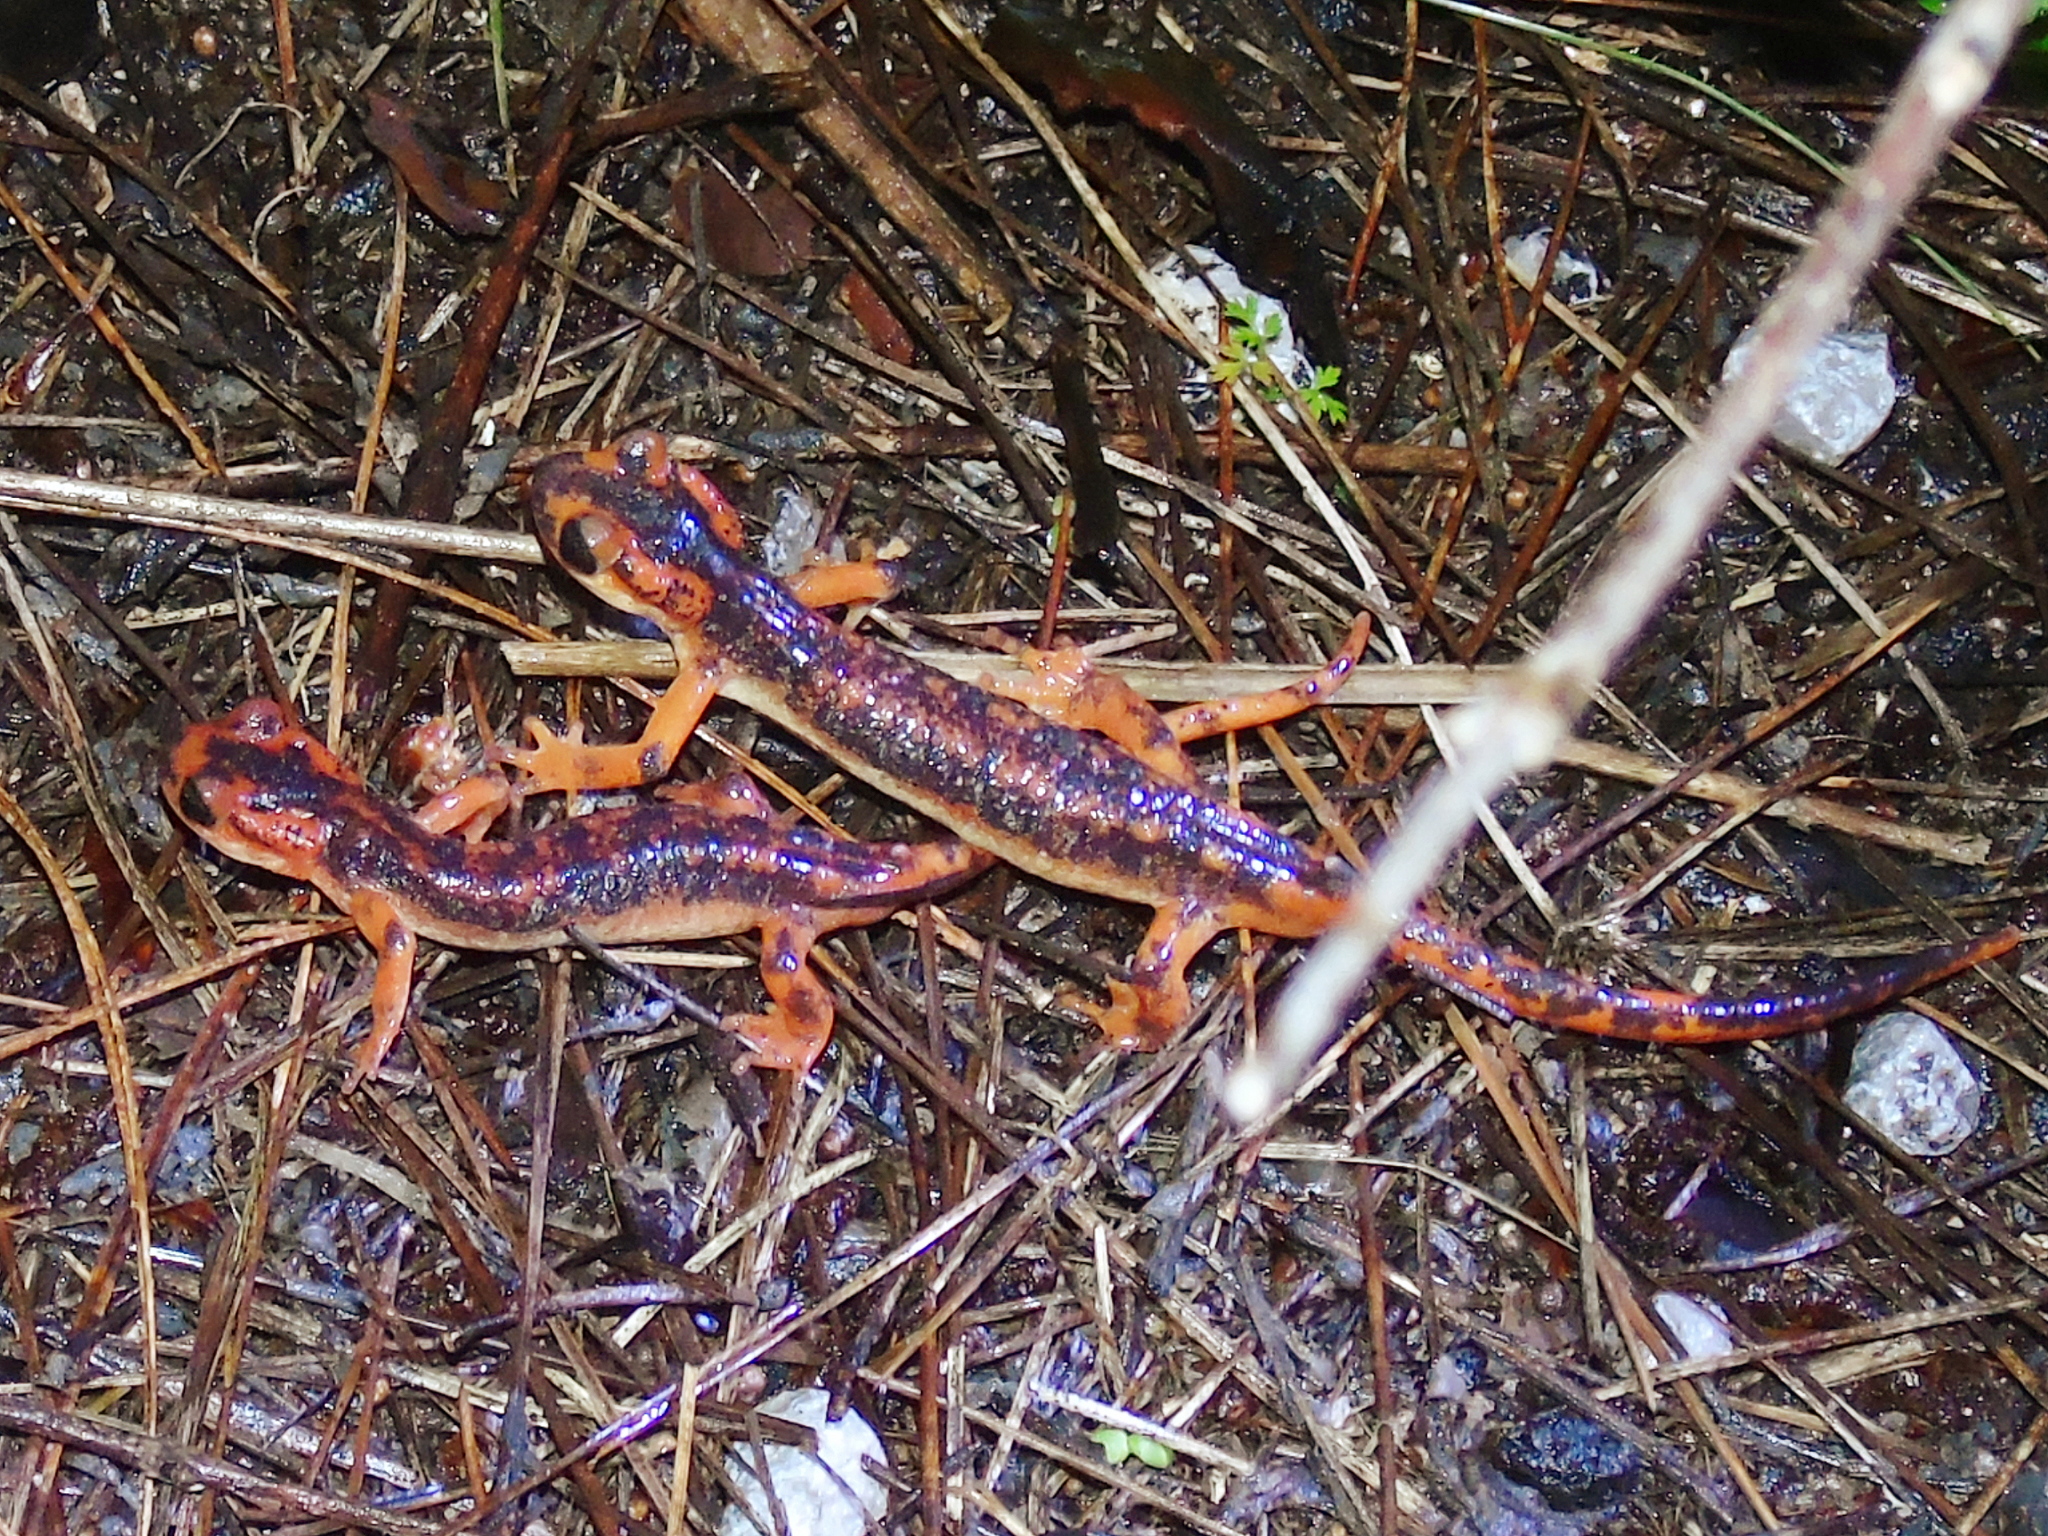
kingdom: Animalia
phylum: Chordata
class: Amphibia
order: Caudata
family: Salamandridae
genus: Lyciasalamandra
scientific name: Lyciasalamandra fazilae
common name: Fazila's salamander
